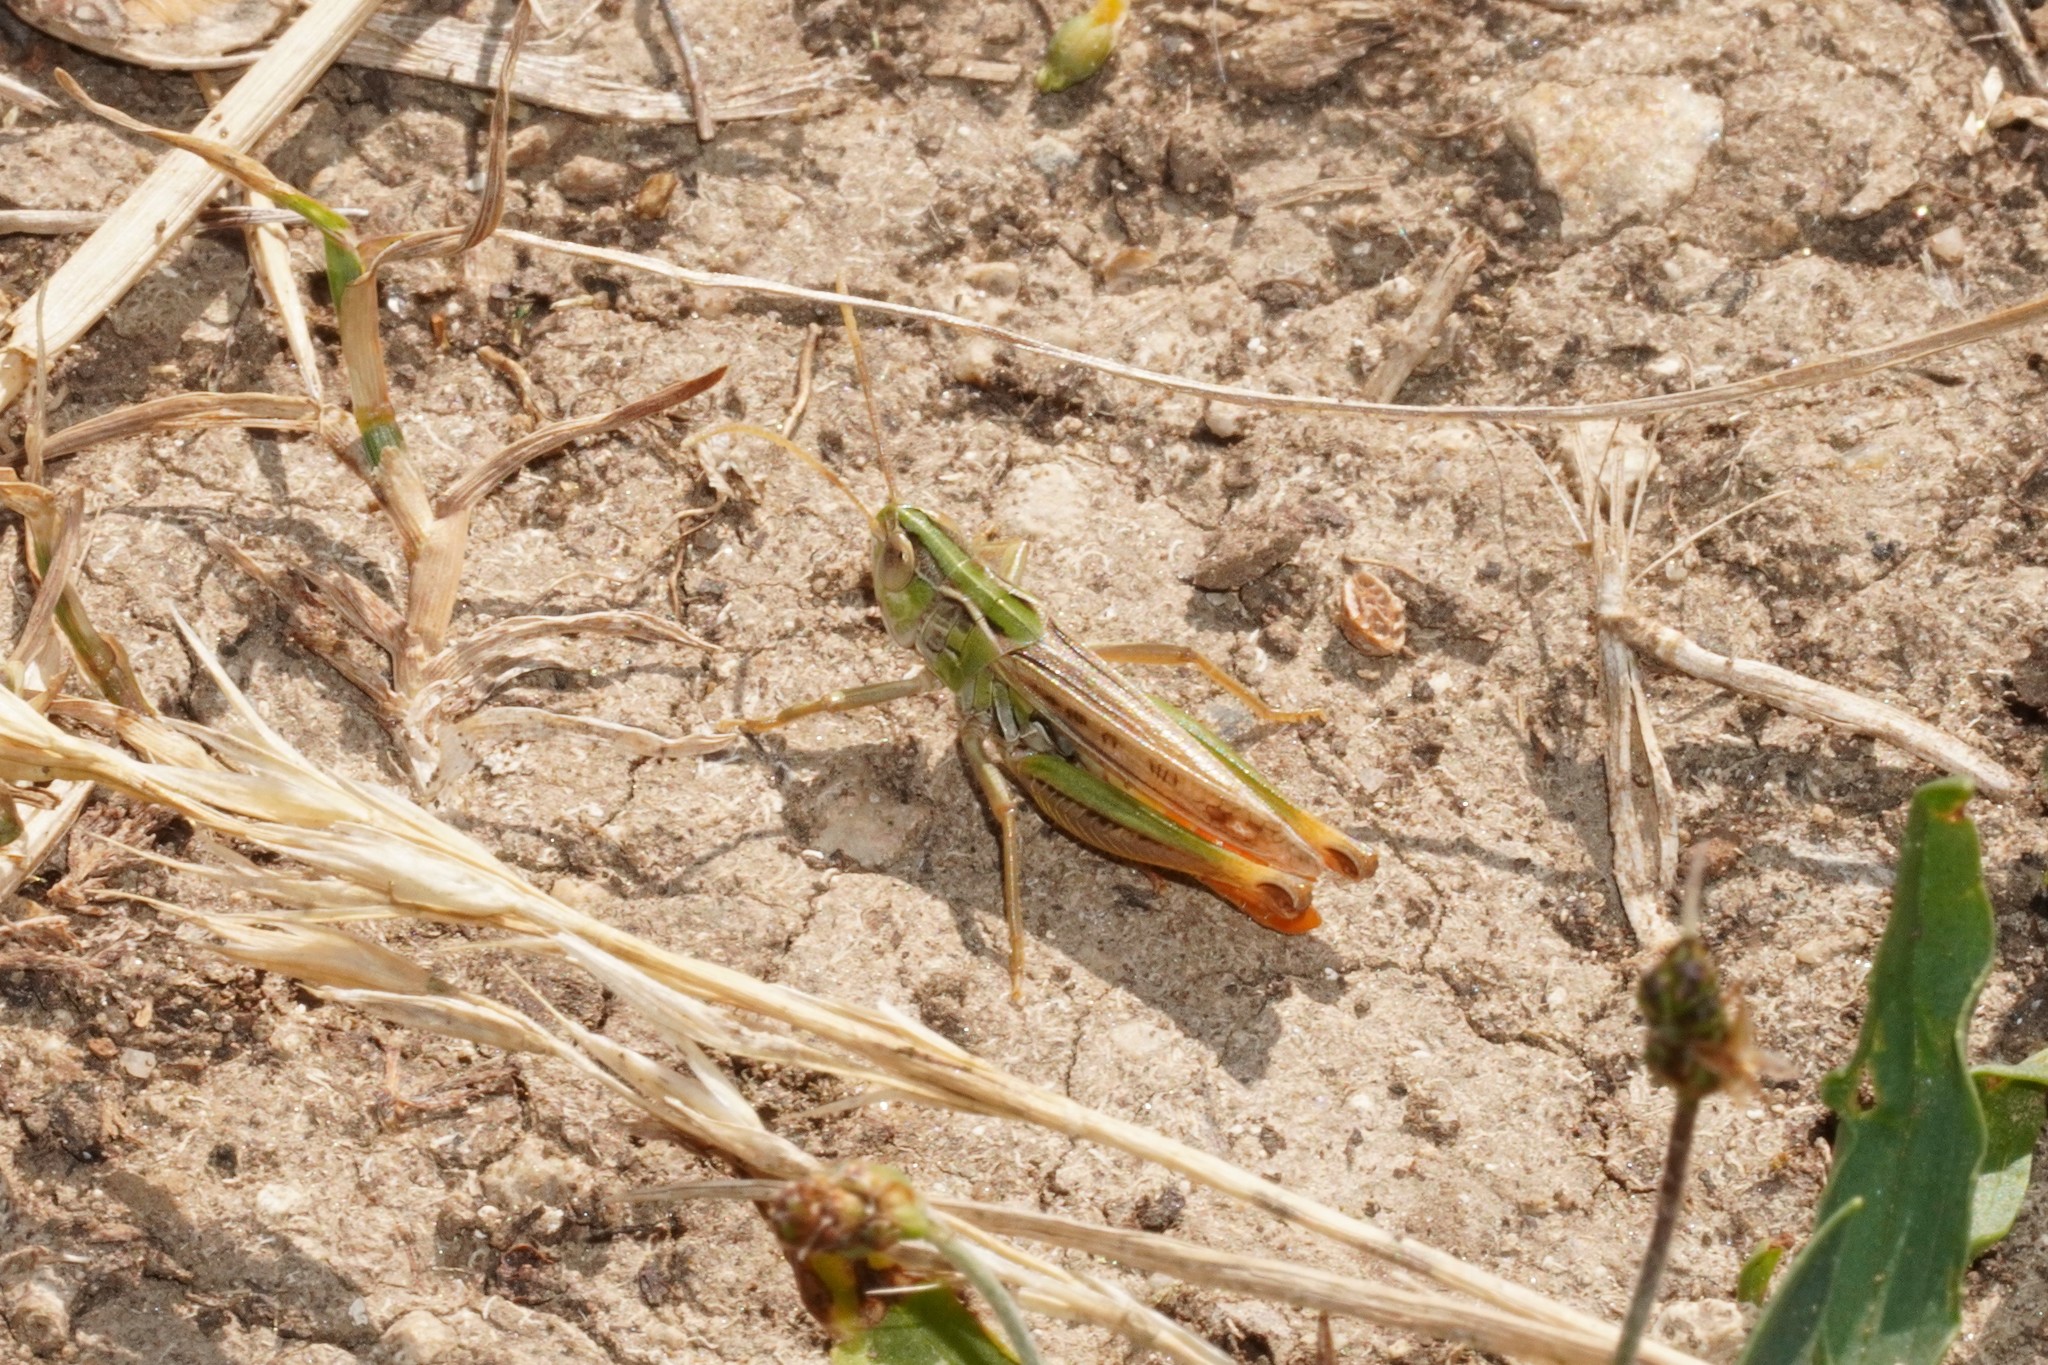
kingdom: Animalia
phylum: Arthropoda
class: Insecta
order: Orthoptera
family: Acrididae
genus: Stenobothrus
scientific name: Stenobothrus nigromaculatus
